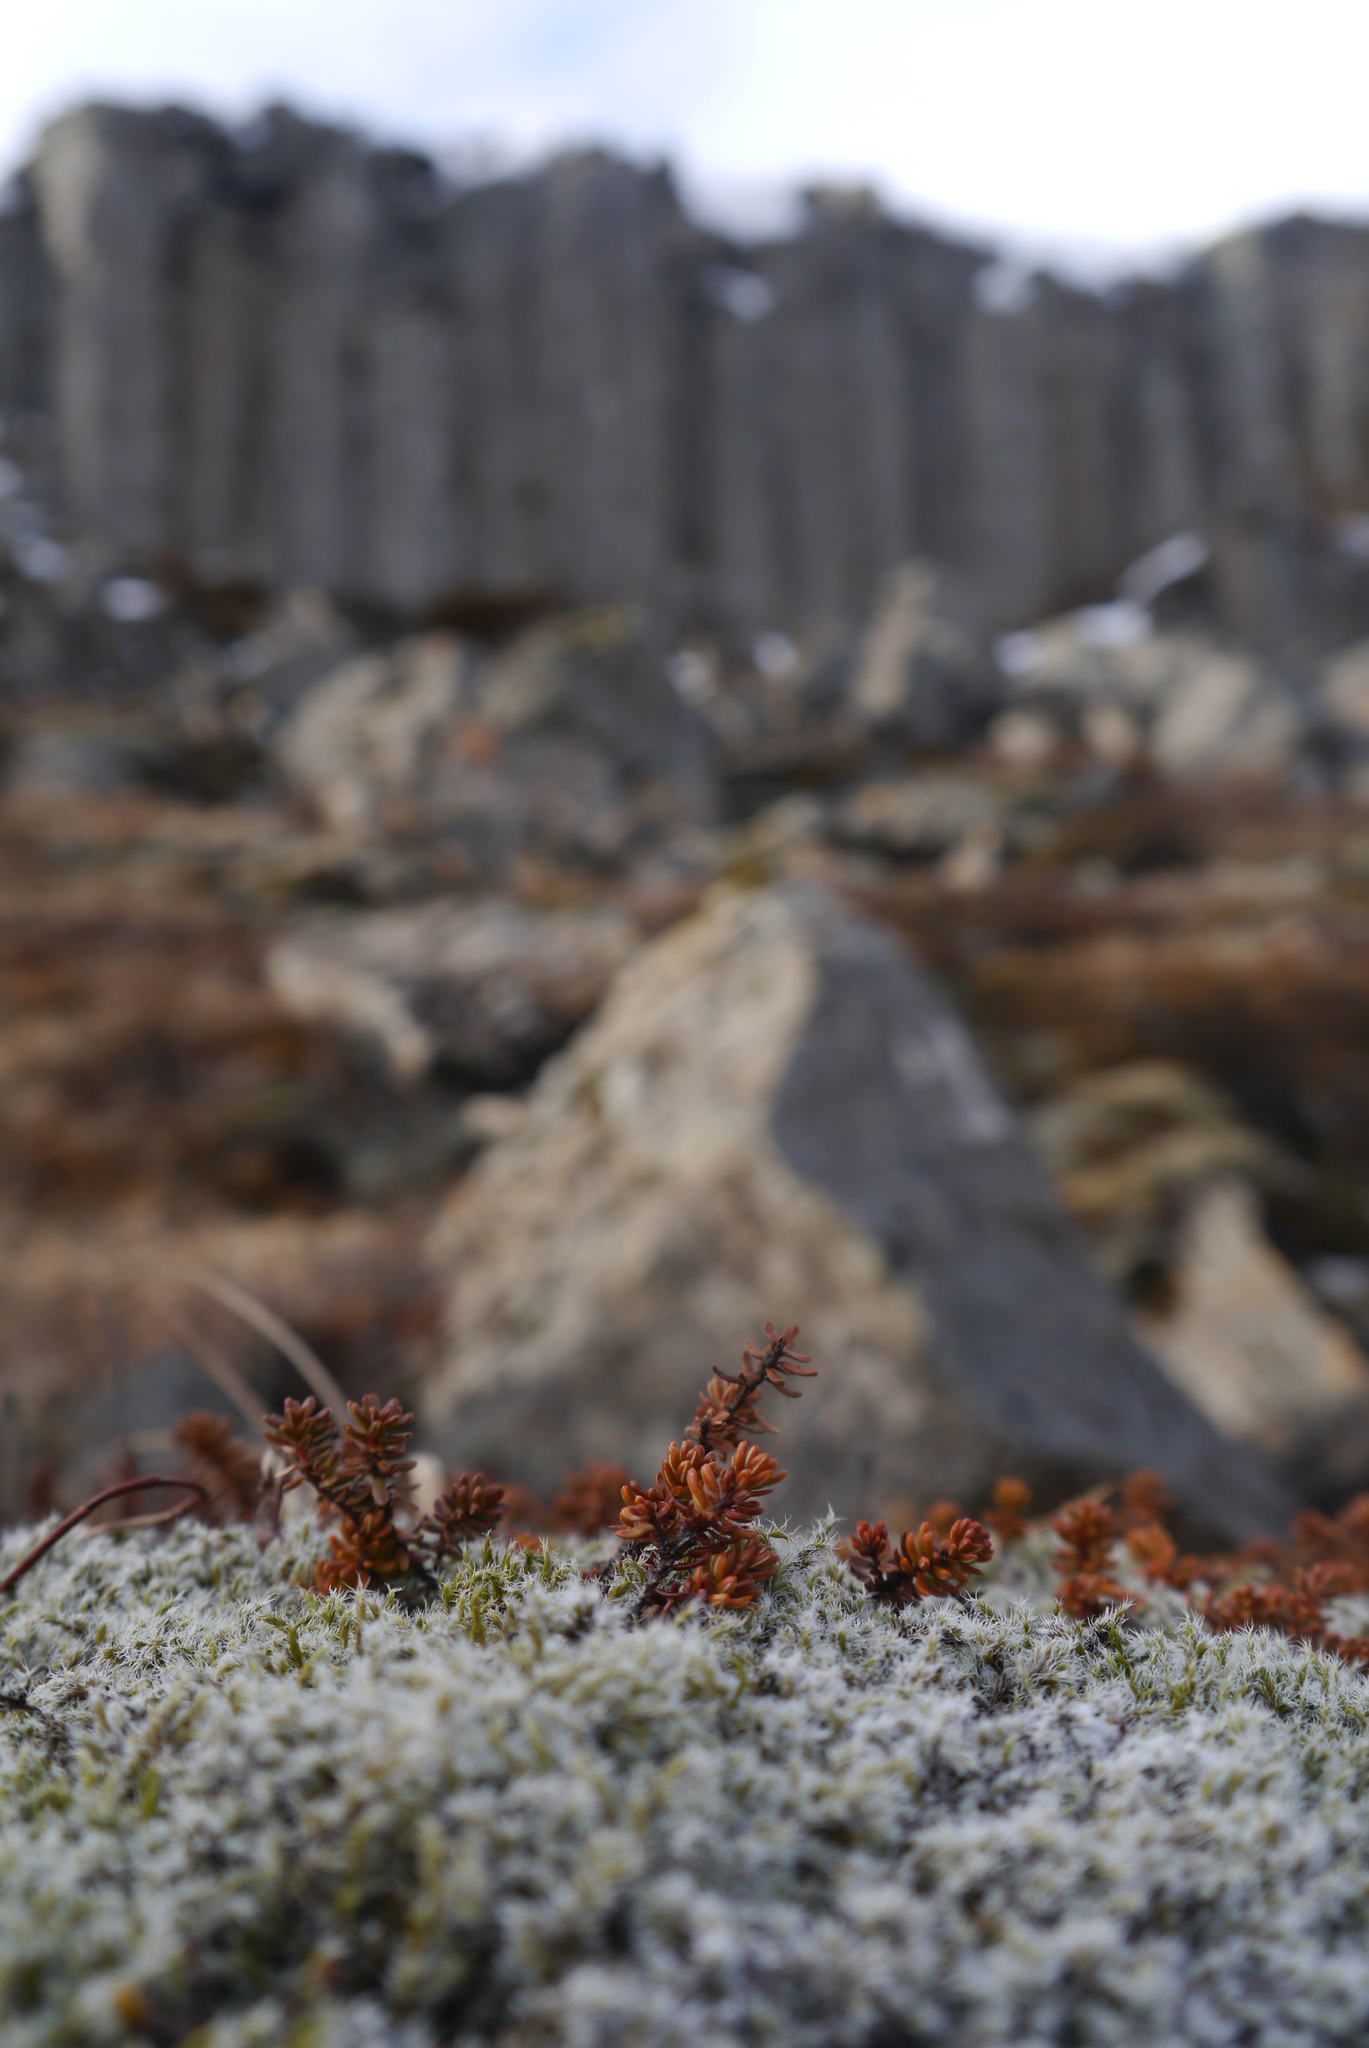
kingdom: Plantae
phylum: Tracheophyta
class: Magnoliopsida
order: Ericales
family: Ericaceae
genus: Empetrum
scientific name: Empetrum nigrum
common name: Black crowberry
